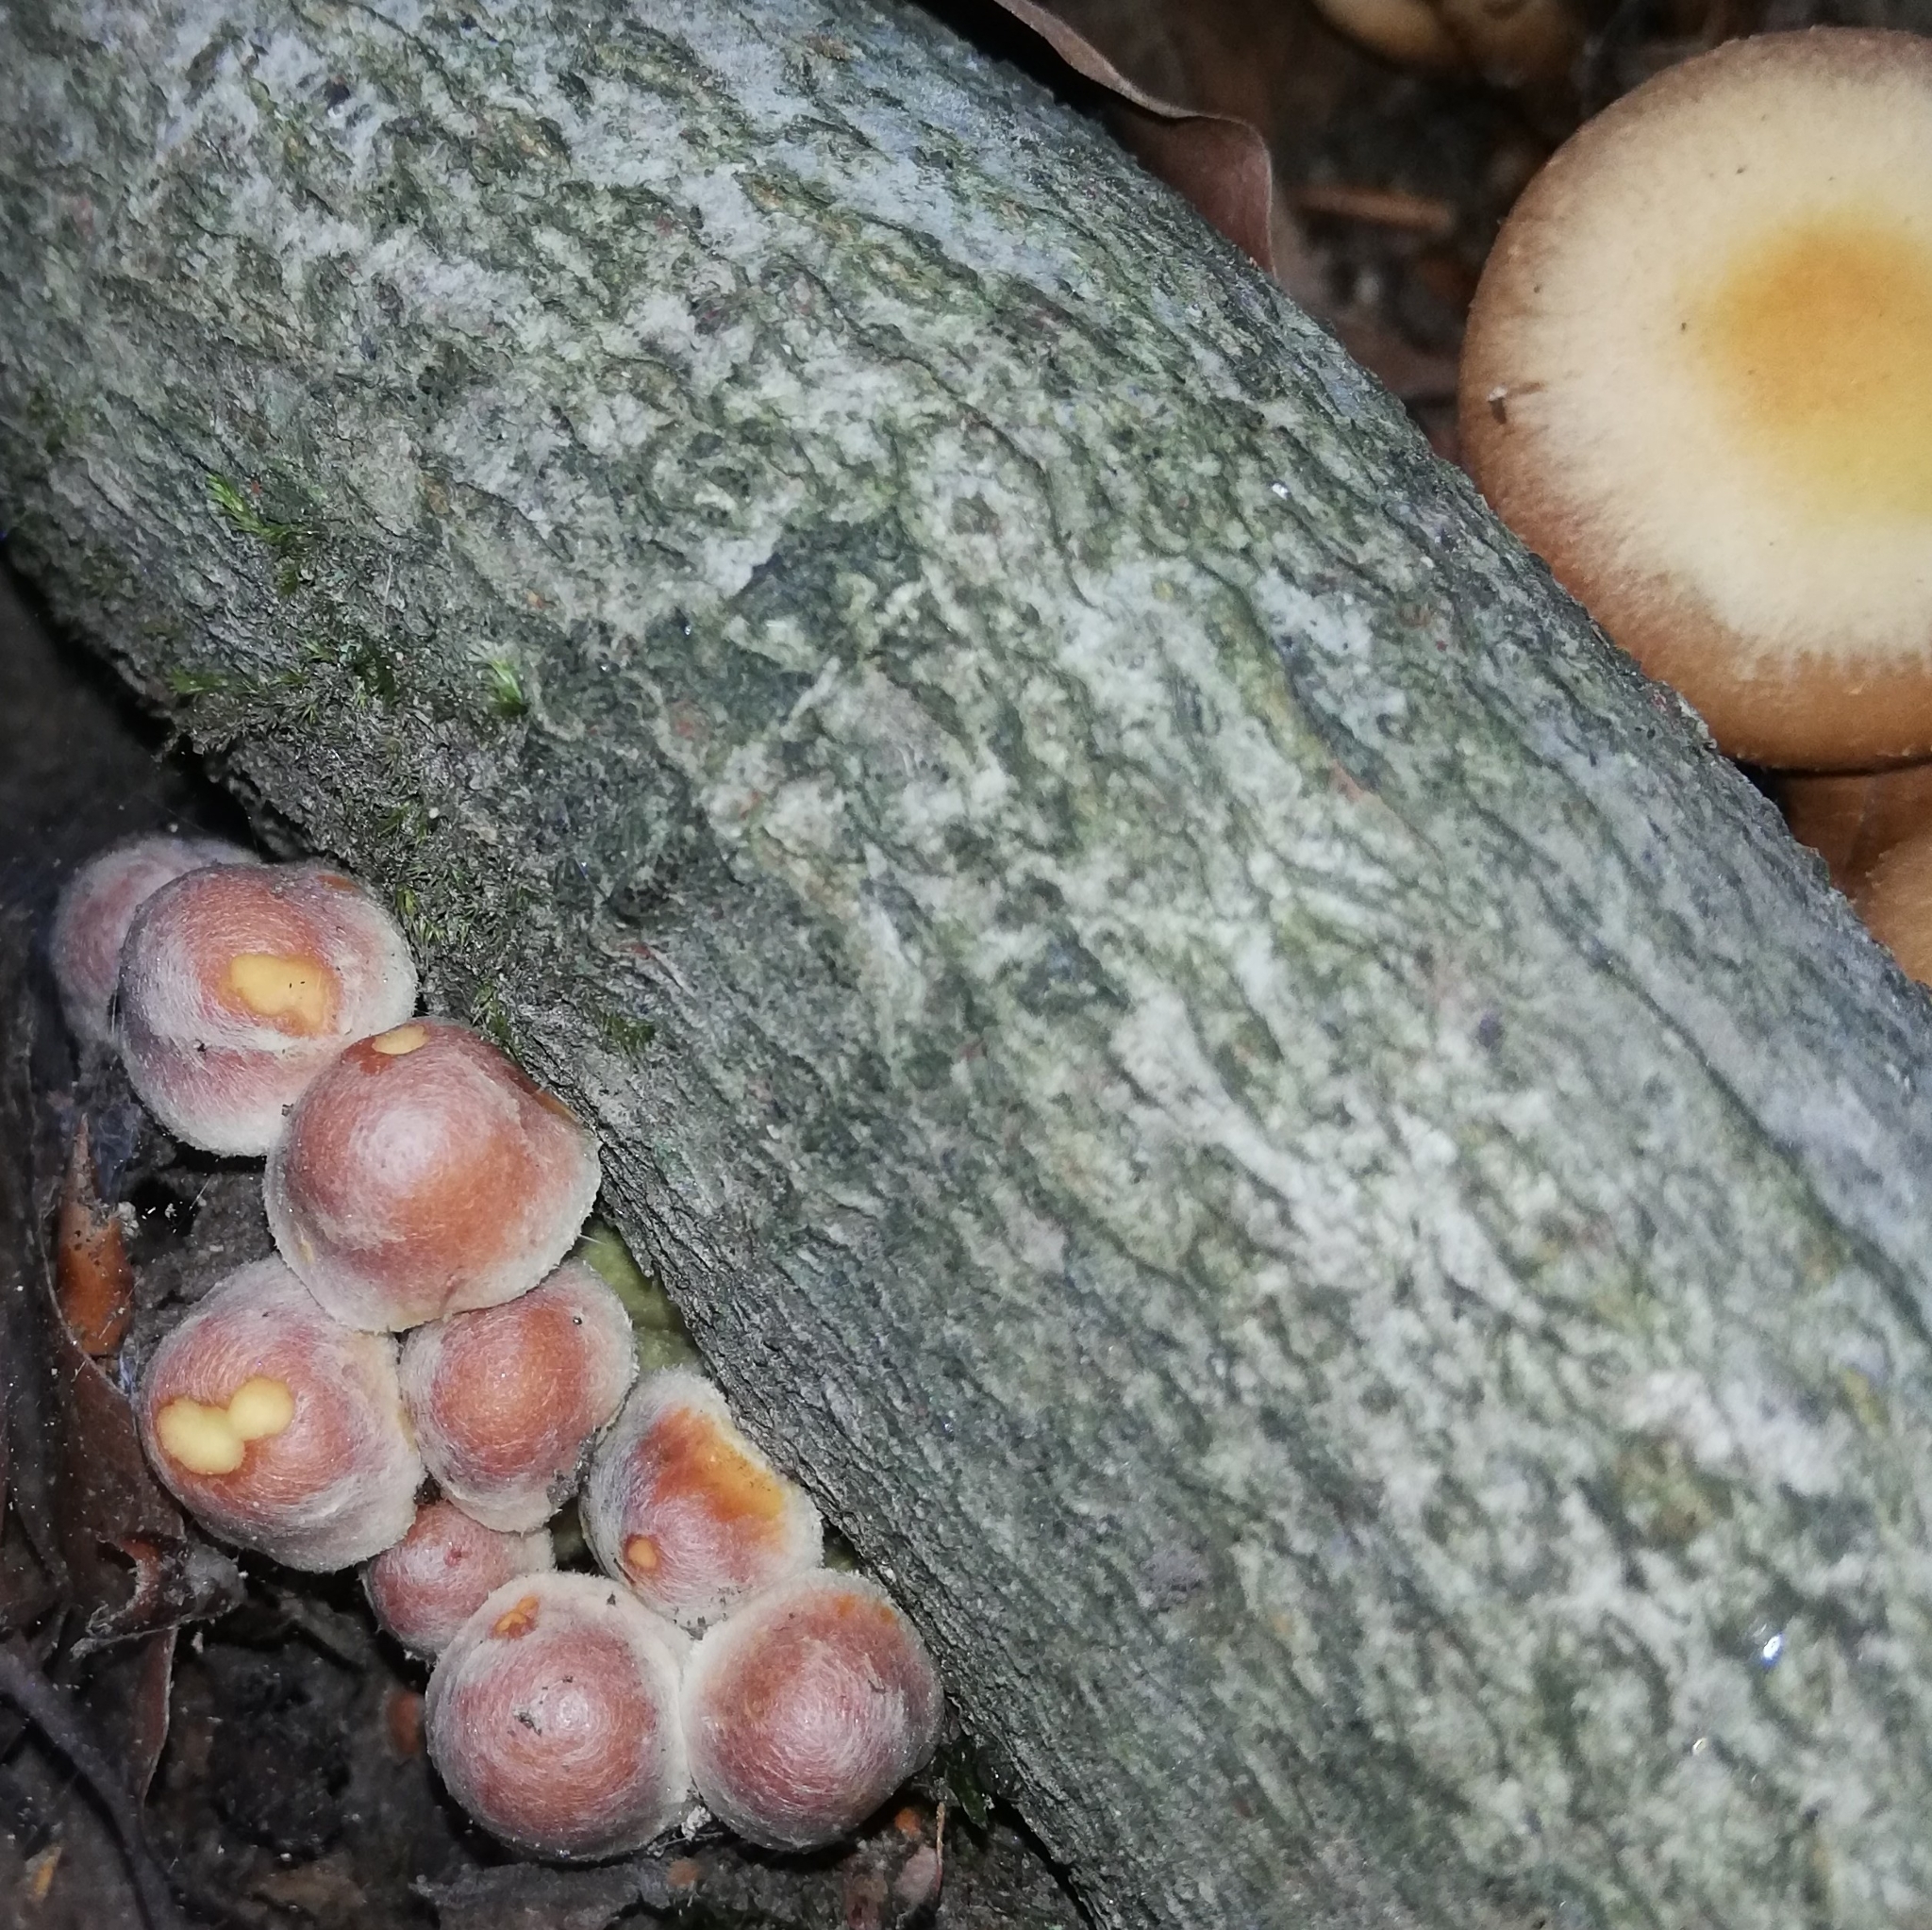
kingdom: Fungi
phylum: Basidiomycota
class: Agaricomycetes
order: Agaricales
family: Strophariaceae
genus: Kuehneromyces
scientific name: Kuehneromyces mutabilis
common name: Sheathed woodtuft
